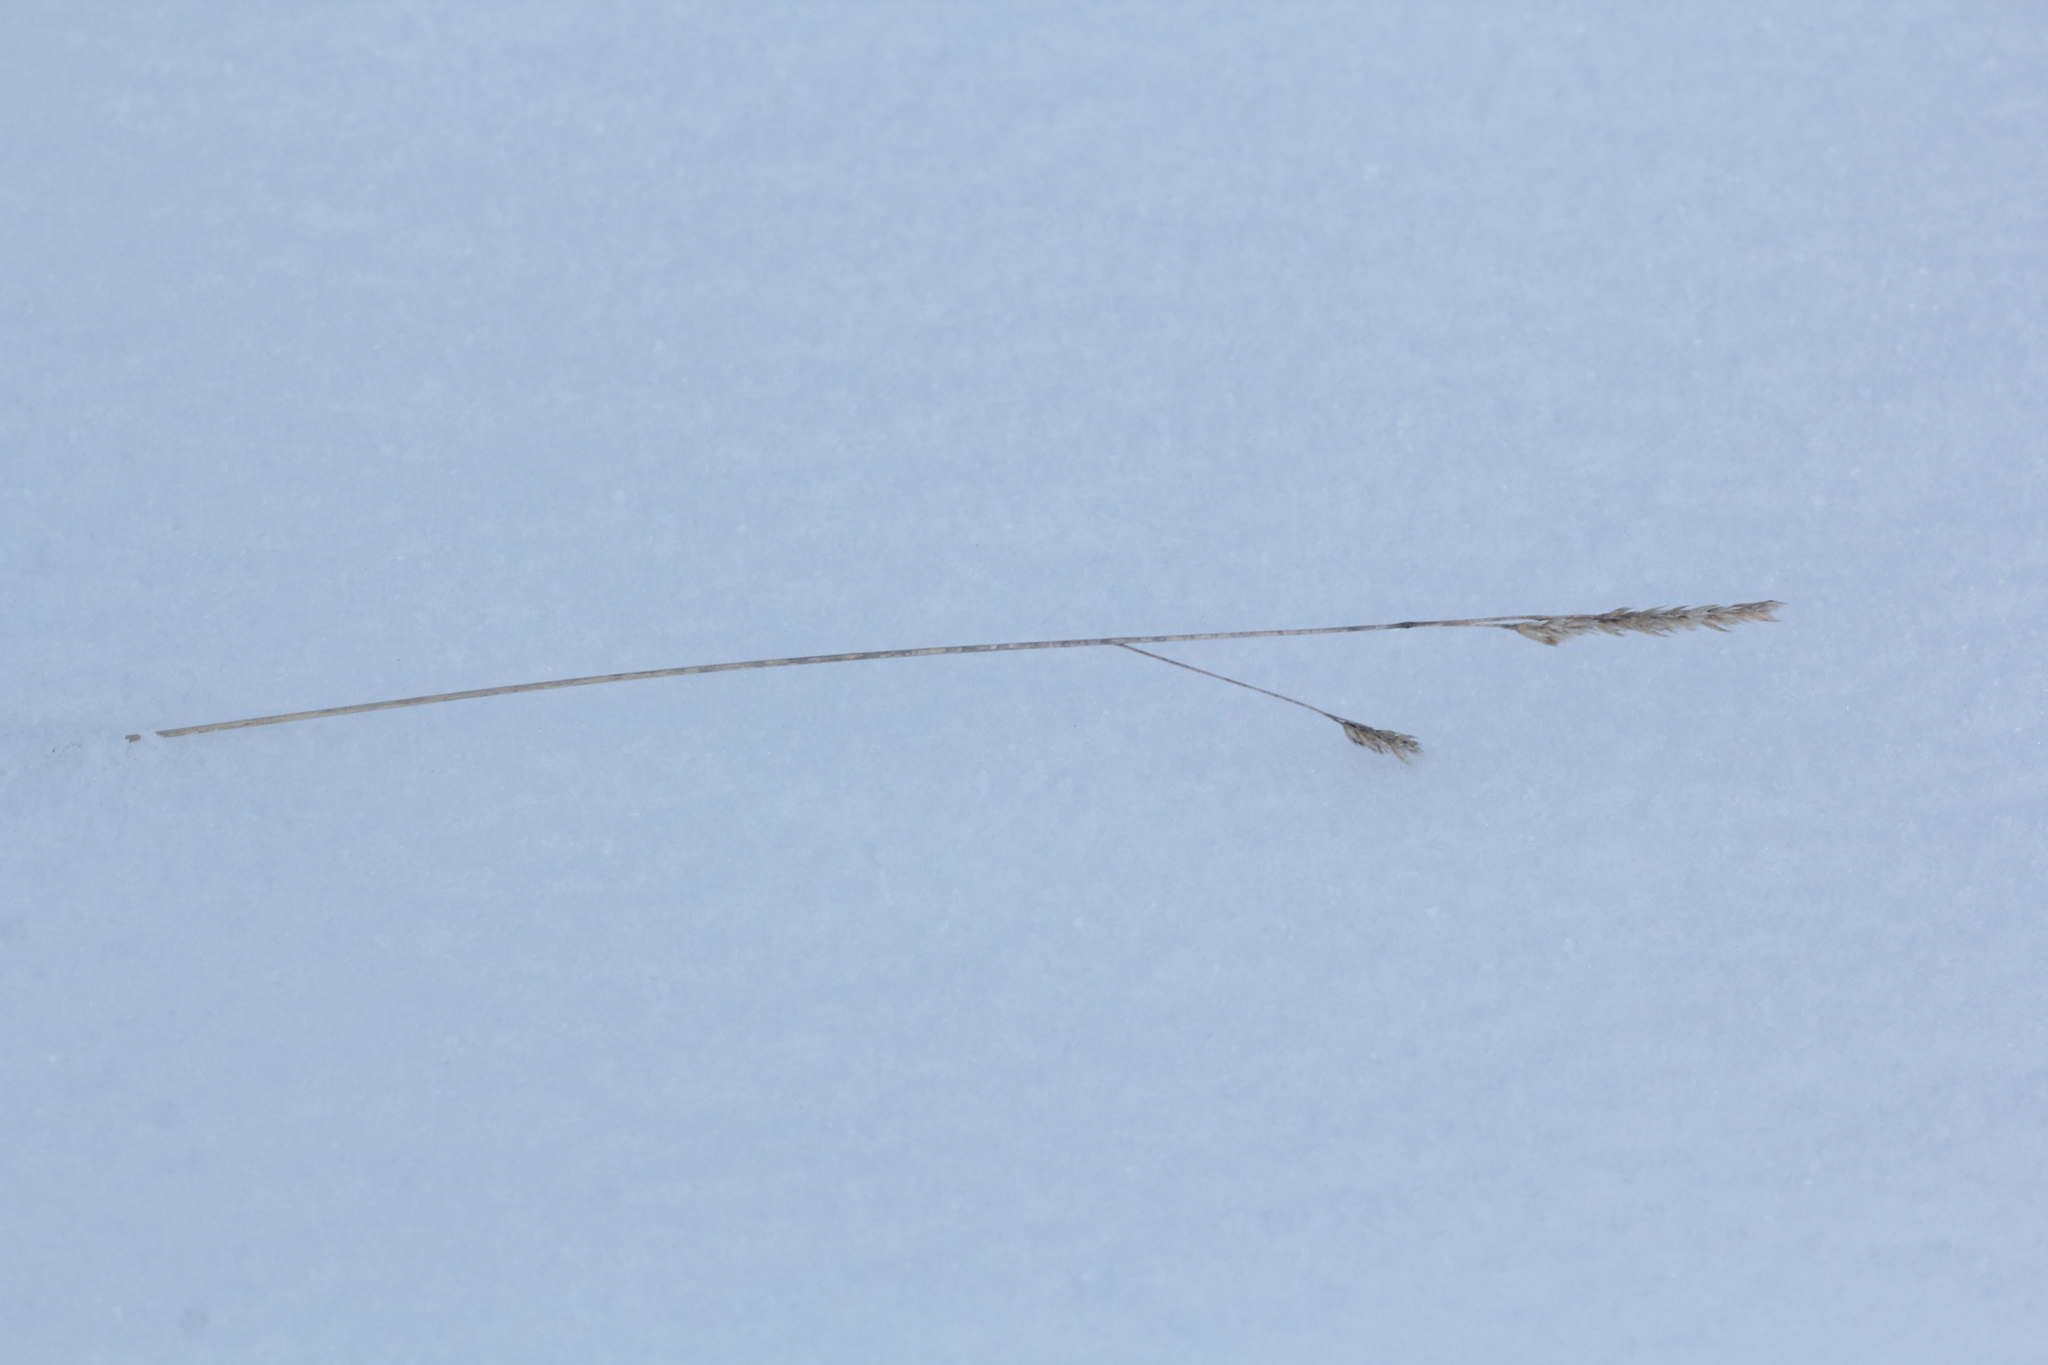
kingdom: Plantae
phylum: Tracheophyta
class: Liliopsida
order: Poales
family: Poaceae
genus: Dactylis
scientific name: Dactylis glomerata
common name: Orchardgrass
